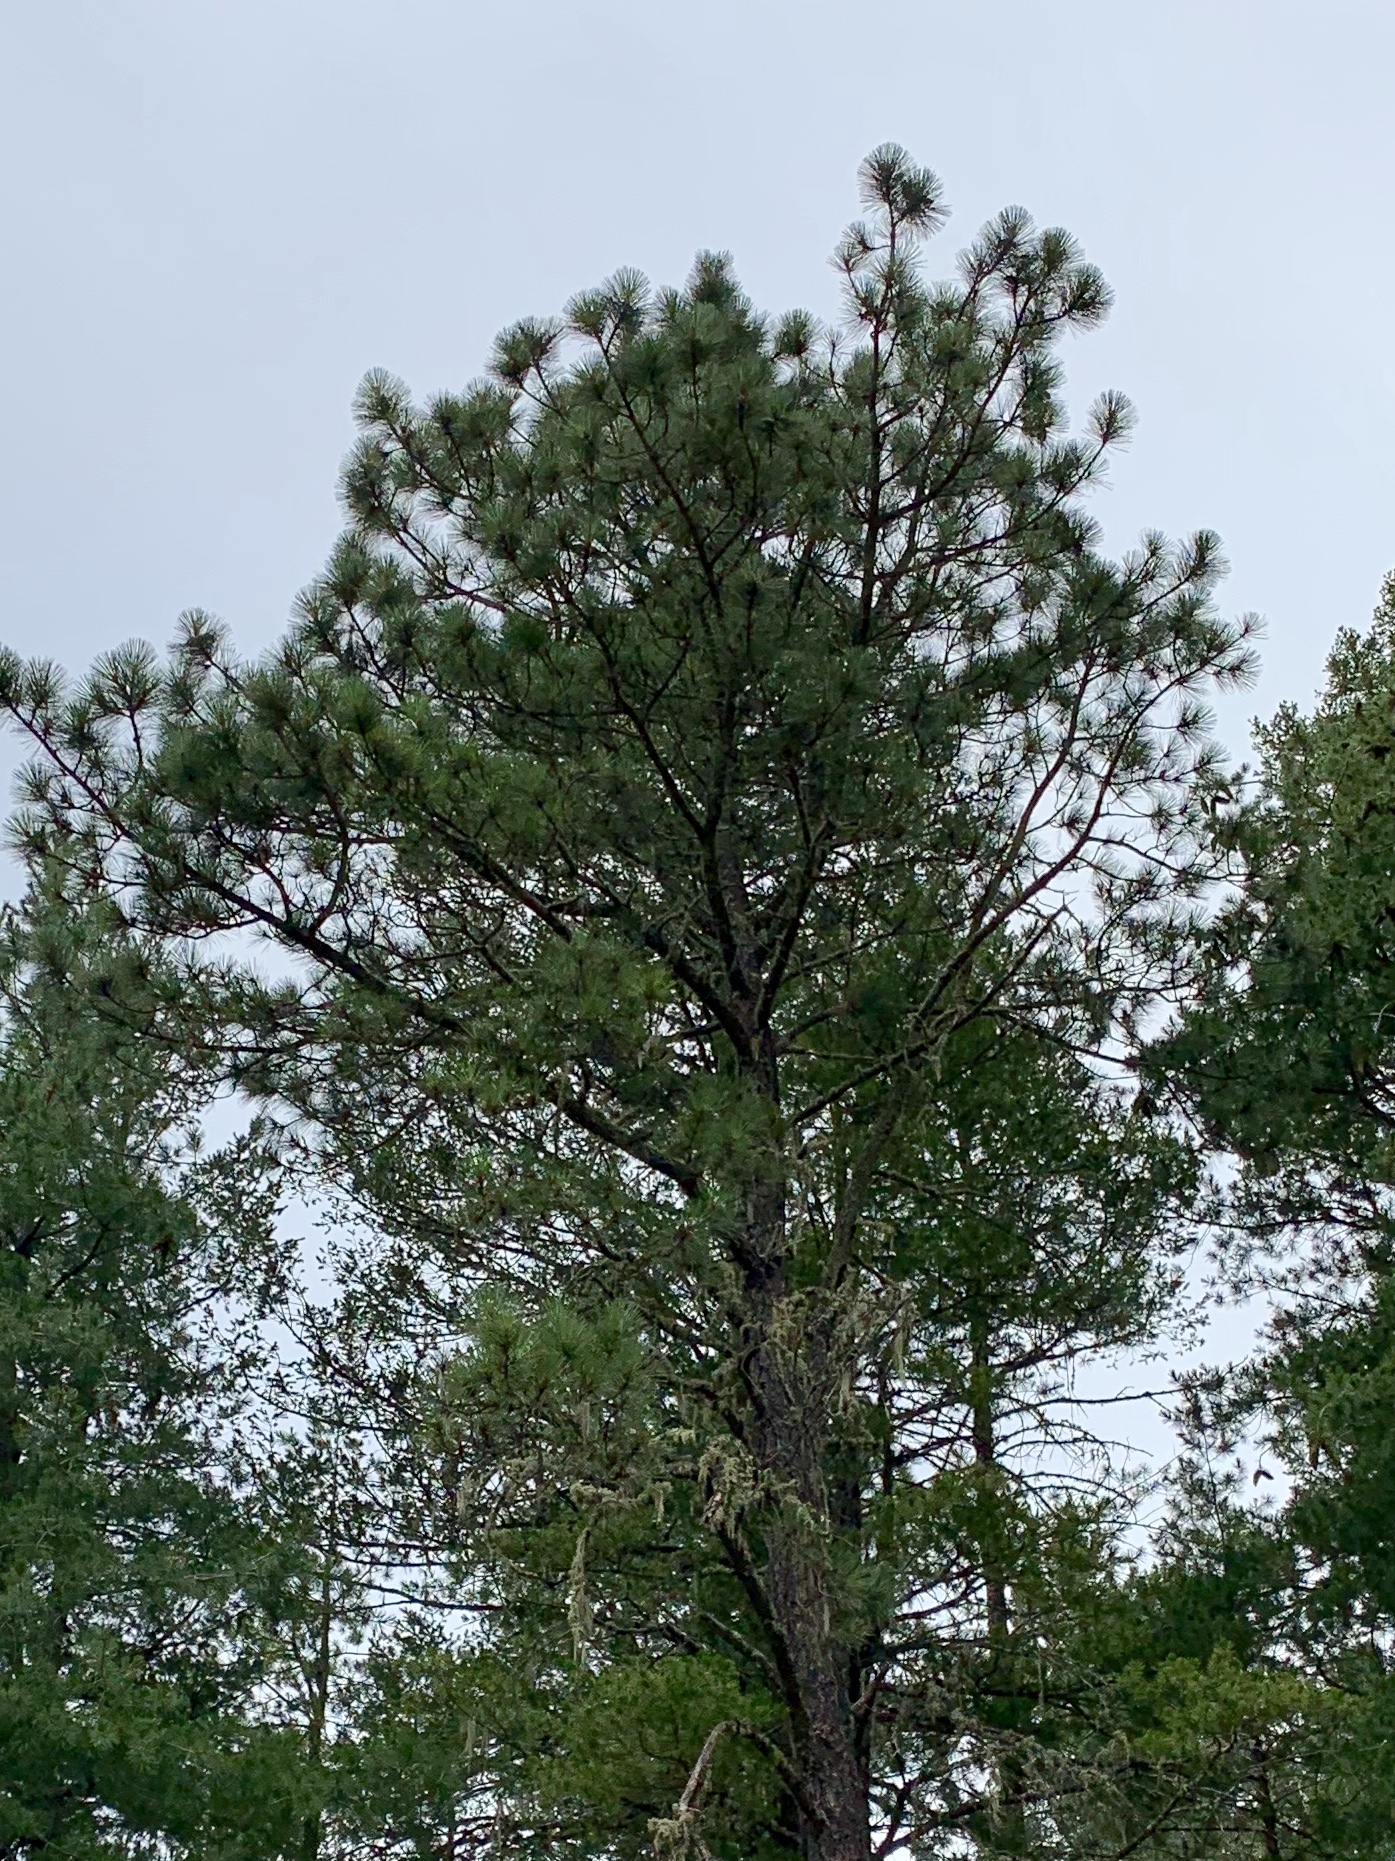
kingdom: Plantae
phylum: Tracheophyta
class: Pinopsida
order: Pinales
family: Pinaceae
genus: Pinus
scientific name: Pinus ponderosa
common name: Western yellow-pine
